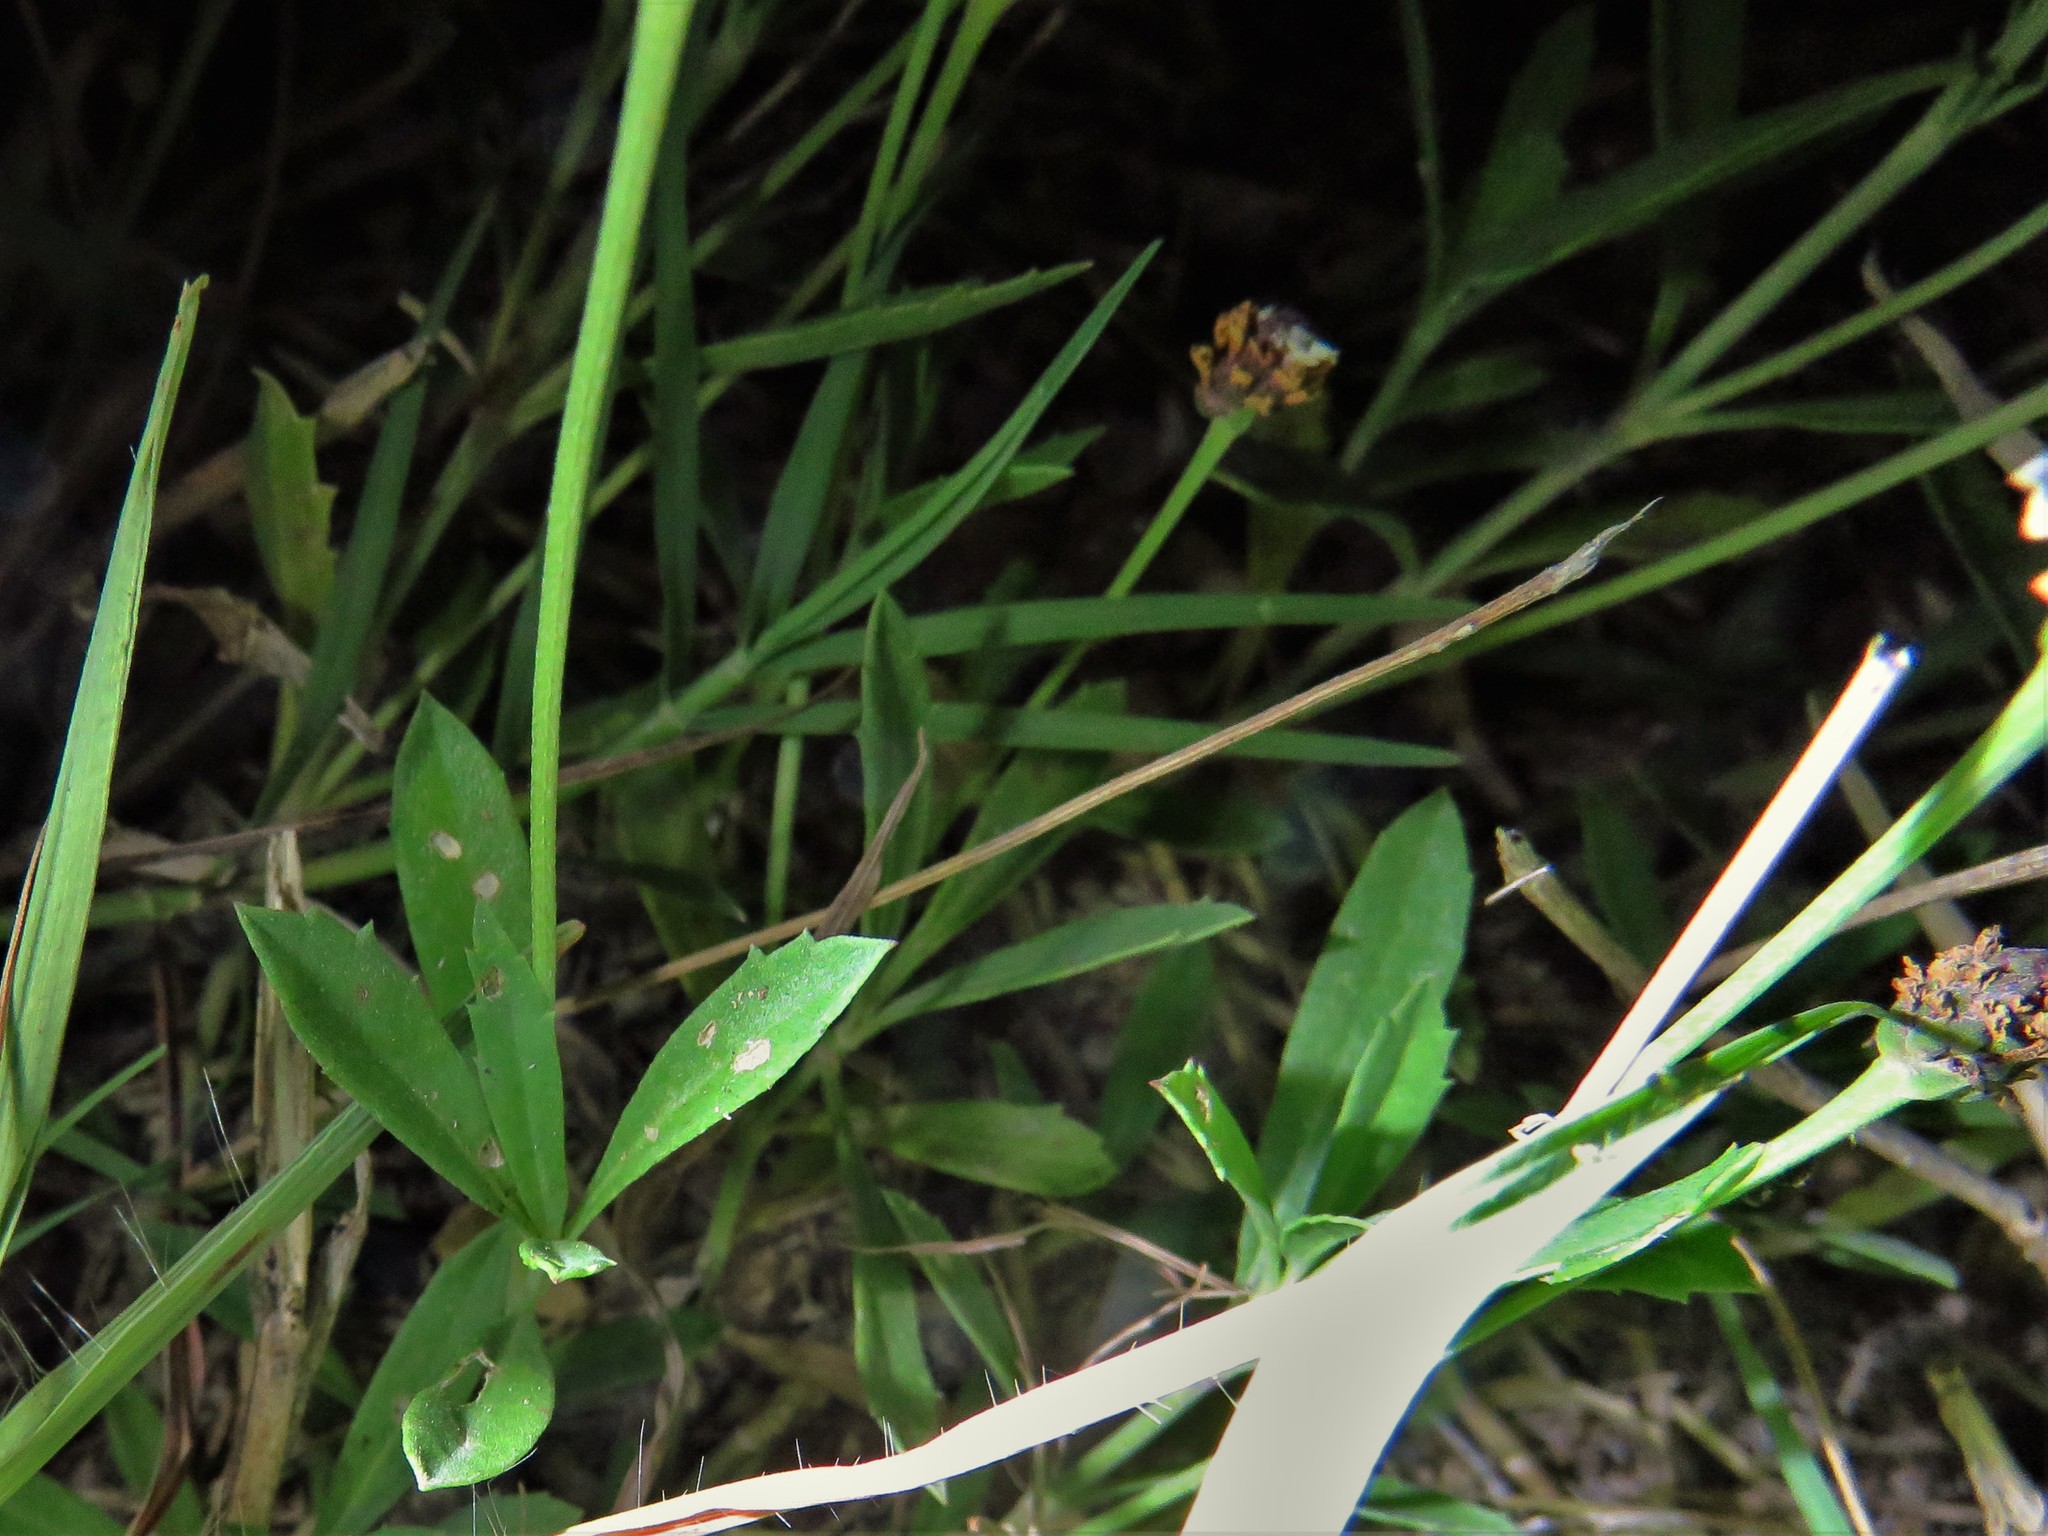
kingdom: Plantae
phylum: Tracheophyta
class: Magnoliopsida
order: Lamiales
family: Verbenaceae
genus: Phyla
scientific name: Phyla nodiflora
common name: Frogfruit
